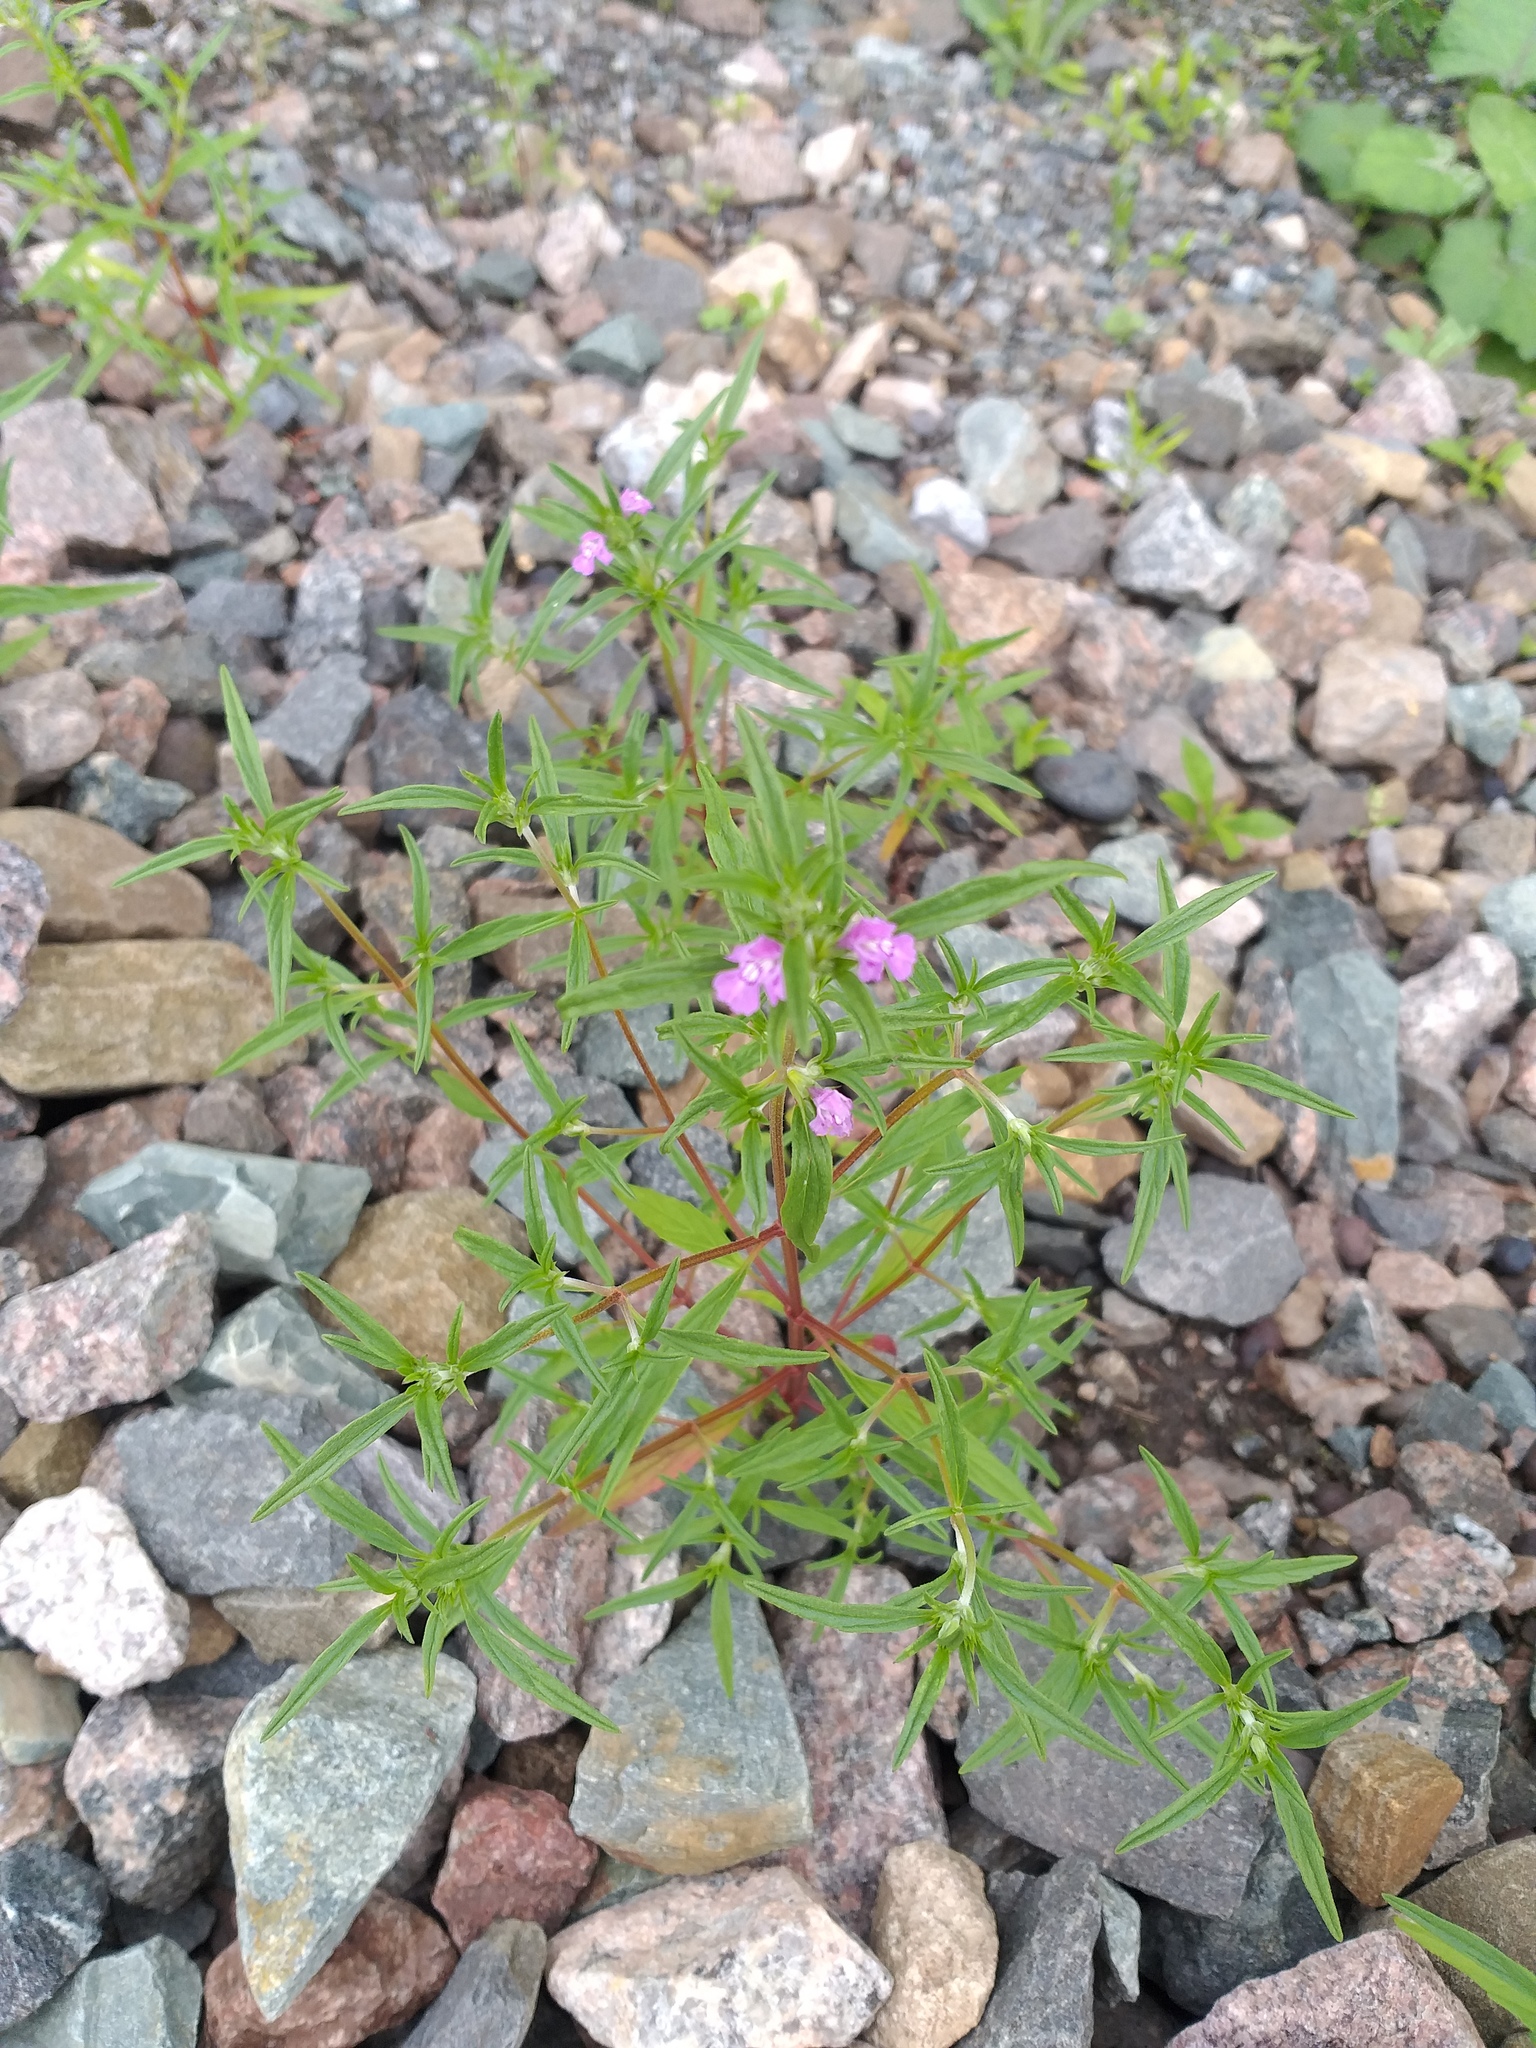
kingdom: Plantae
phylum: Tracheophyta
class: Magnoliopsida
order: Lamiales
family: Lamiaceae
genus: Galeopsis
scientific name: Galeopsis angustifolia
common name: Red hemp-nettle
